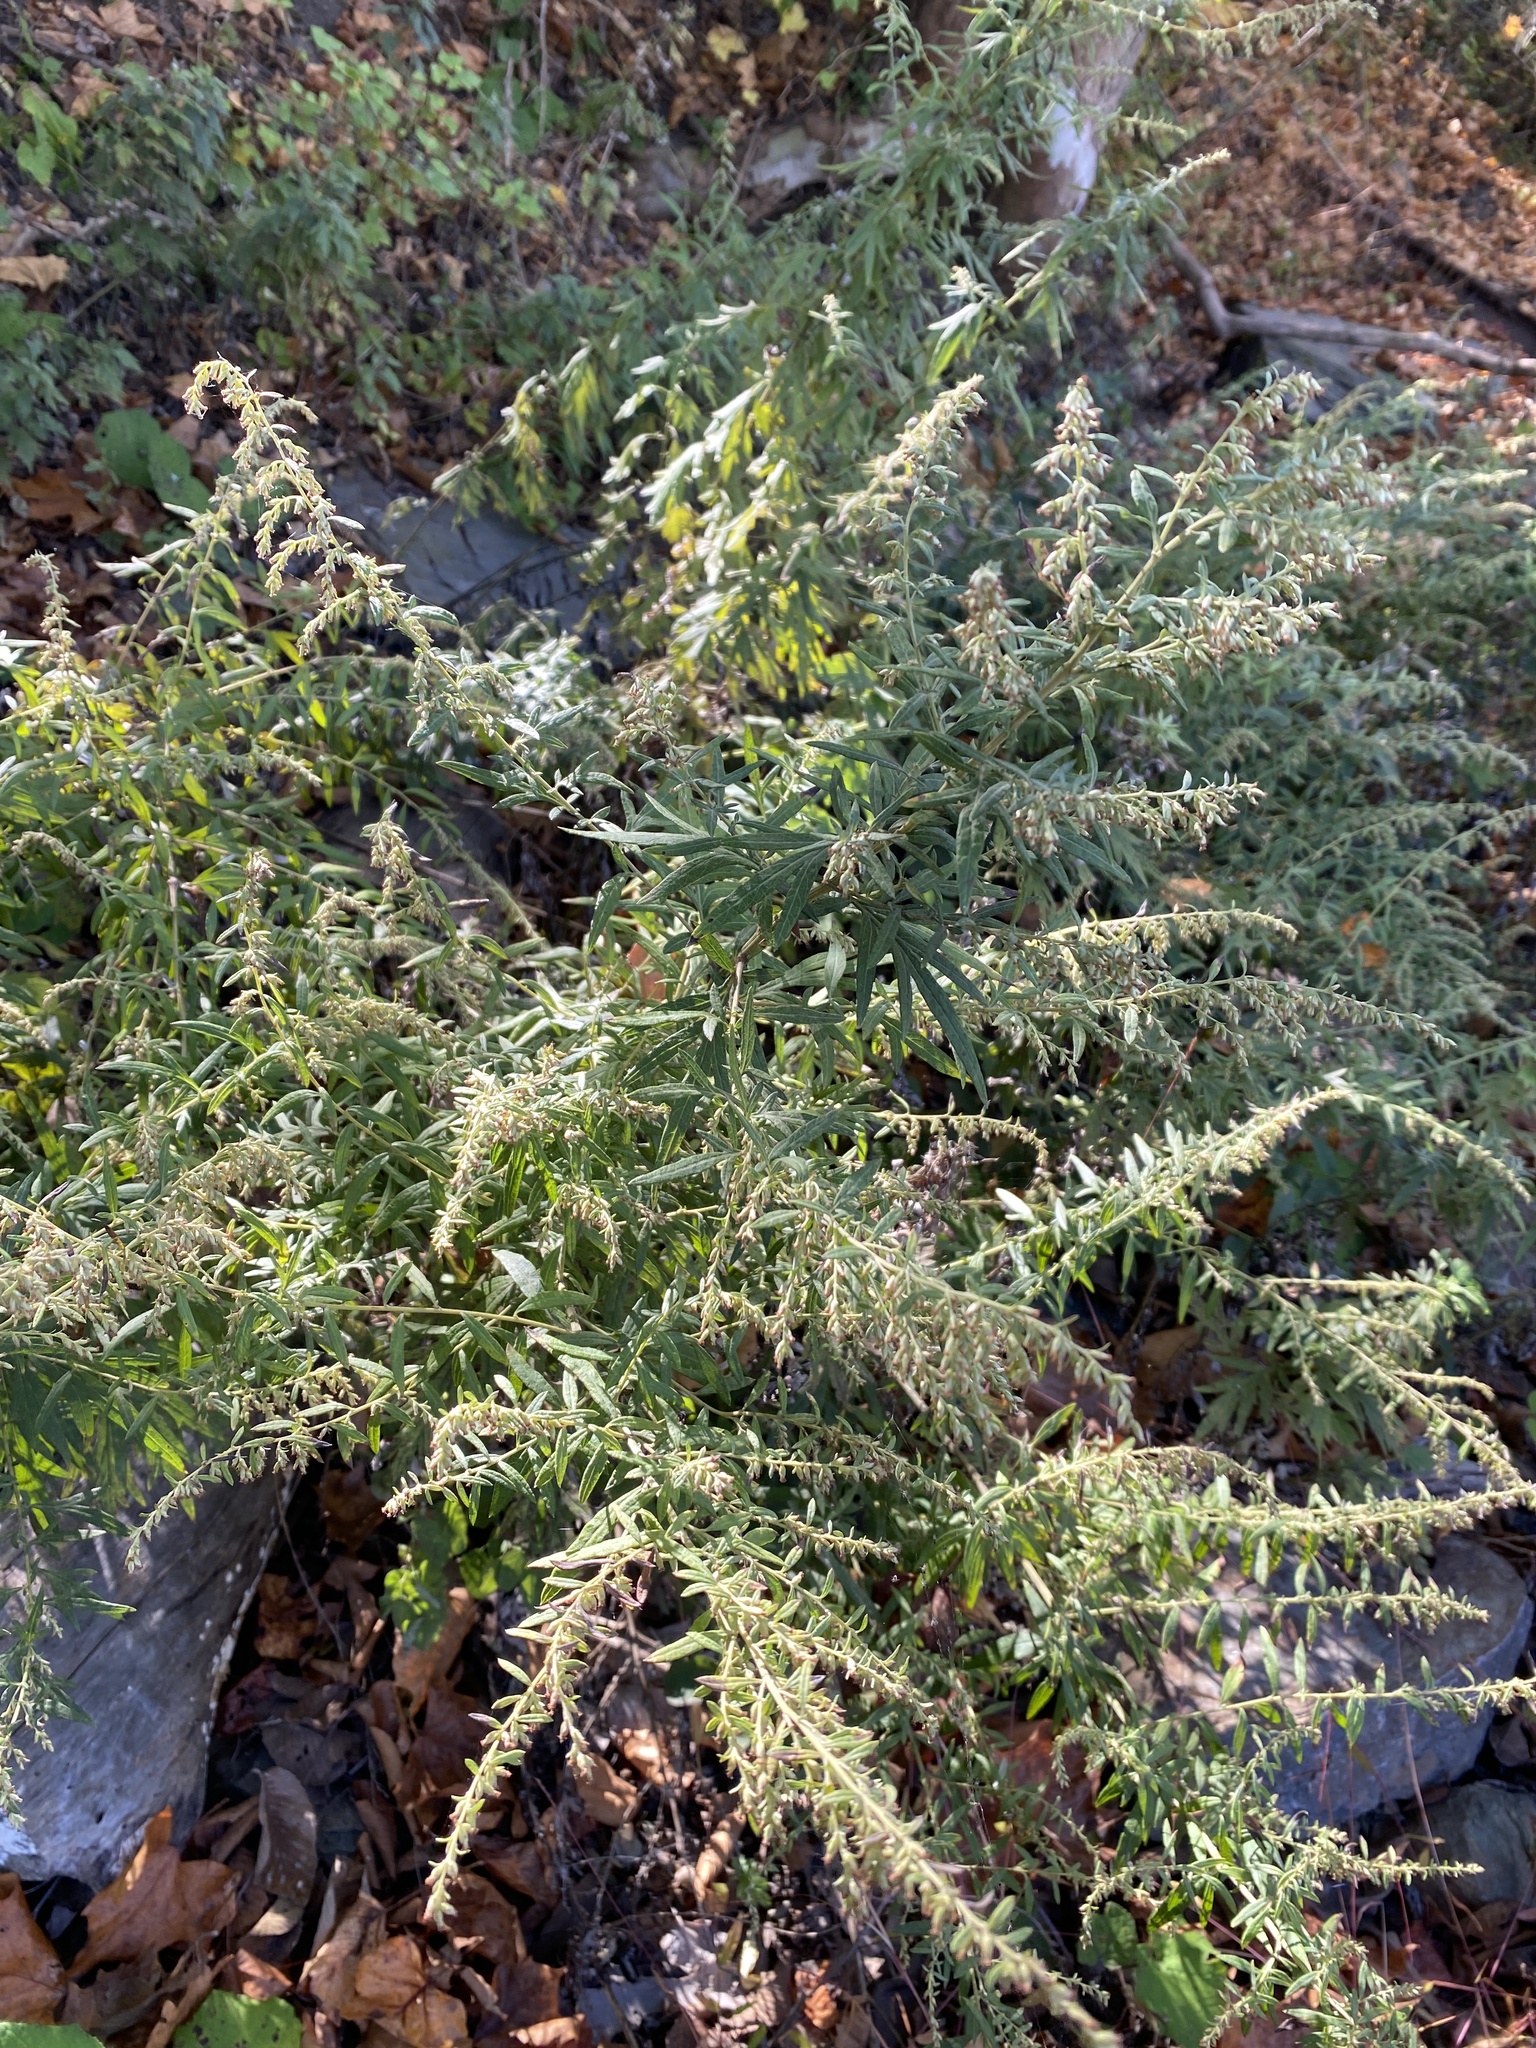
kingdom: Plantae
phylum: Tracheophyta
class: Magnoliopsida
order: Asterales
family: Asteraceae
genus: Artemisia
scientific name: Artemisia vulgaris
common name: Mugwort
